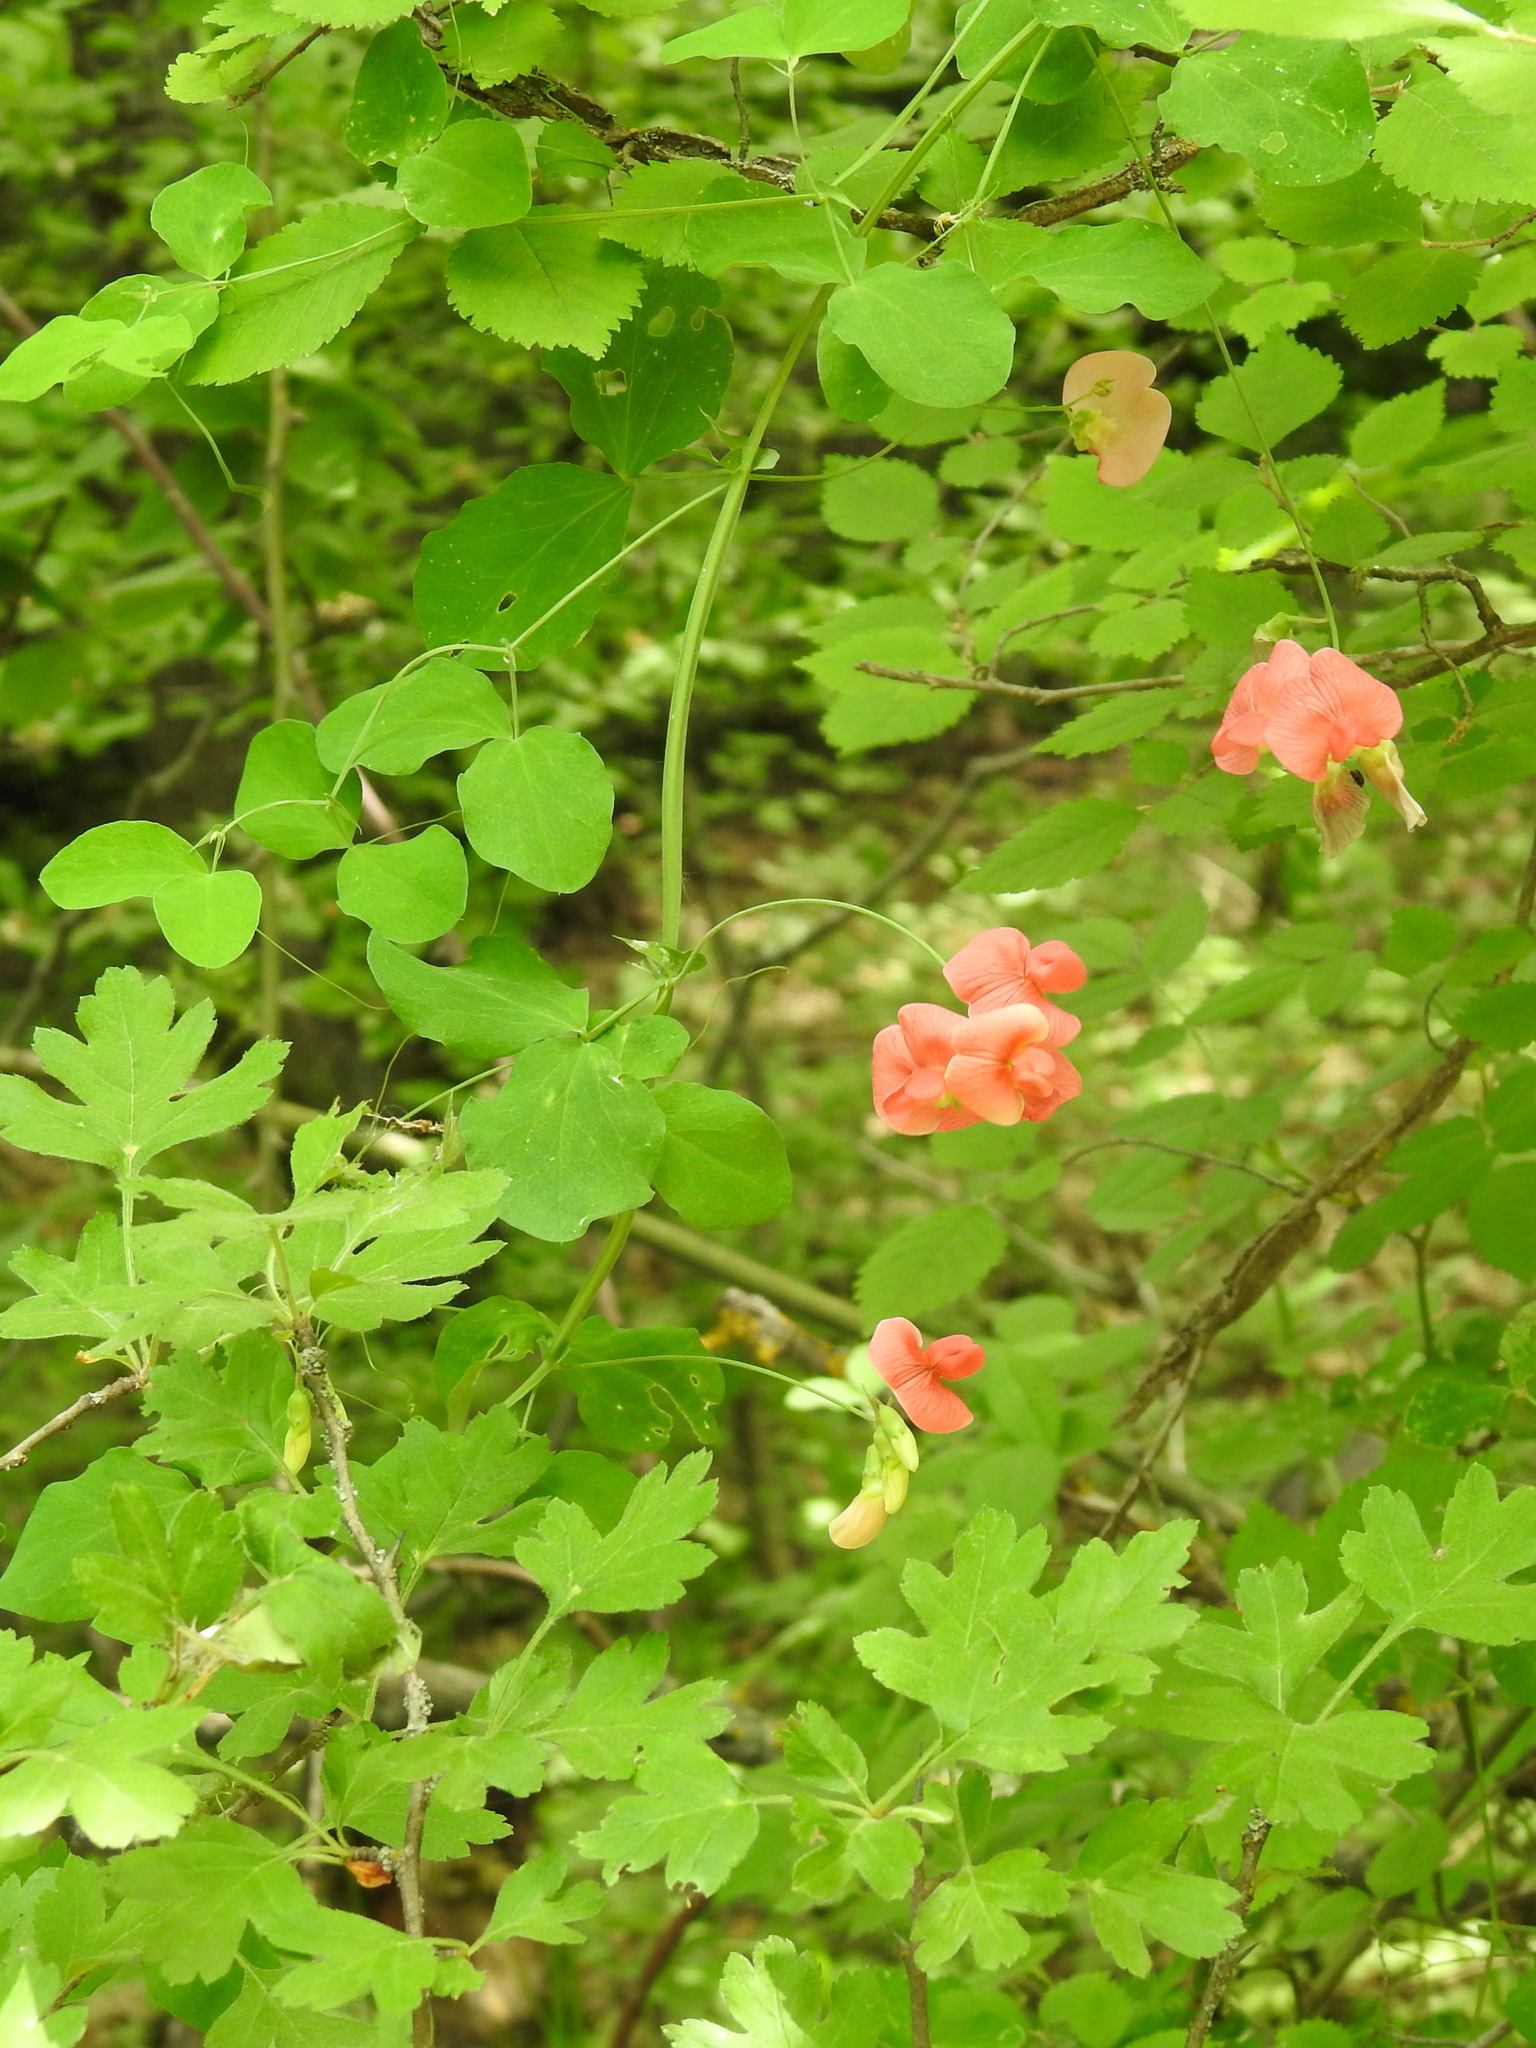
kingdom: Plantae
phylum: Tracheophyta
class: Magnoliopsida
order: Fabales
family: Fabaceae
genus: Lathyrus
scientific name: Lathyrus miniatus
